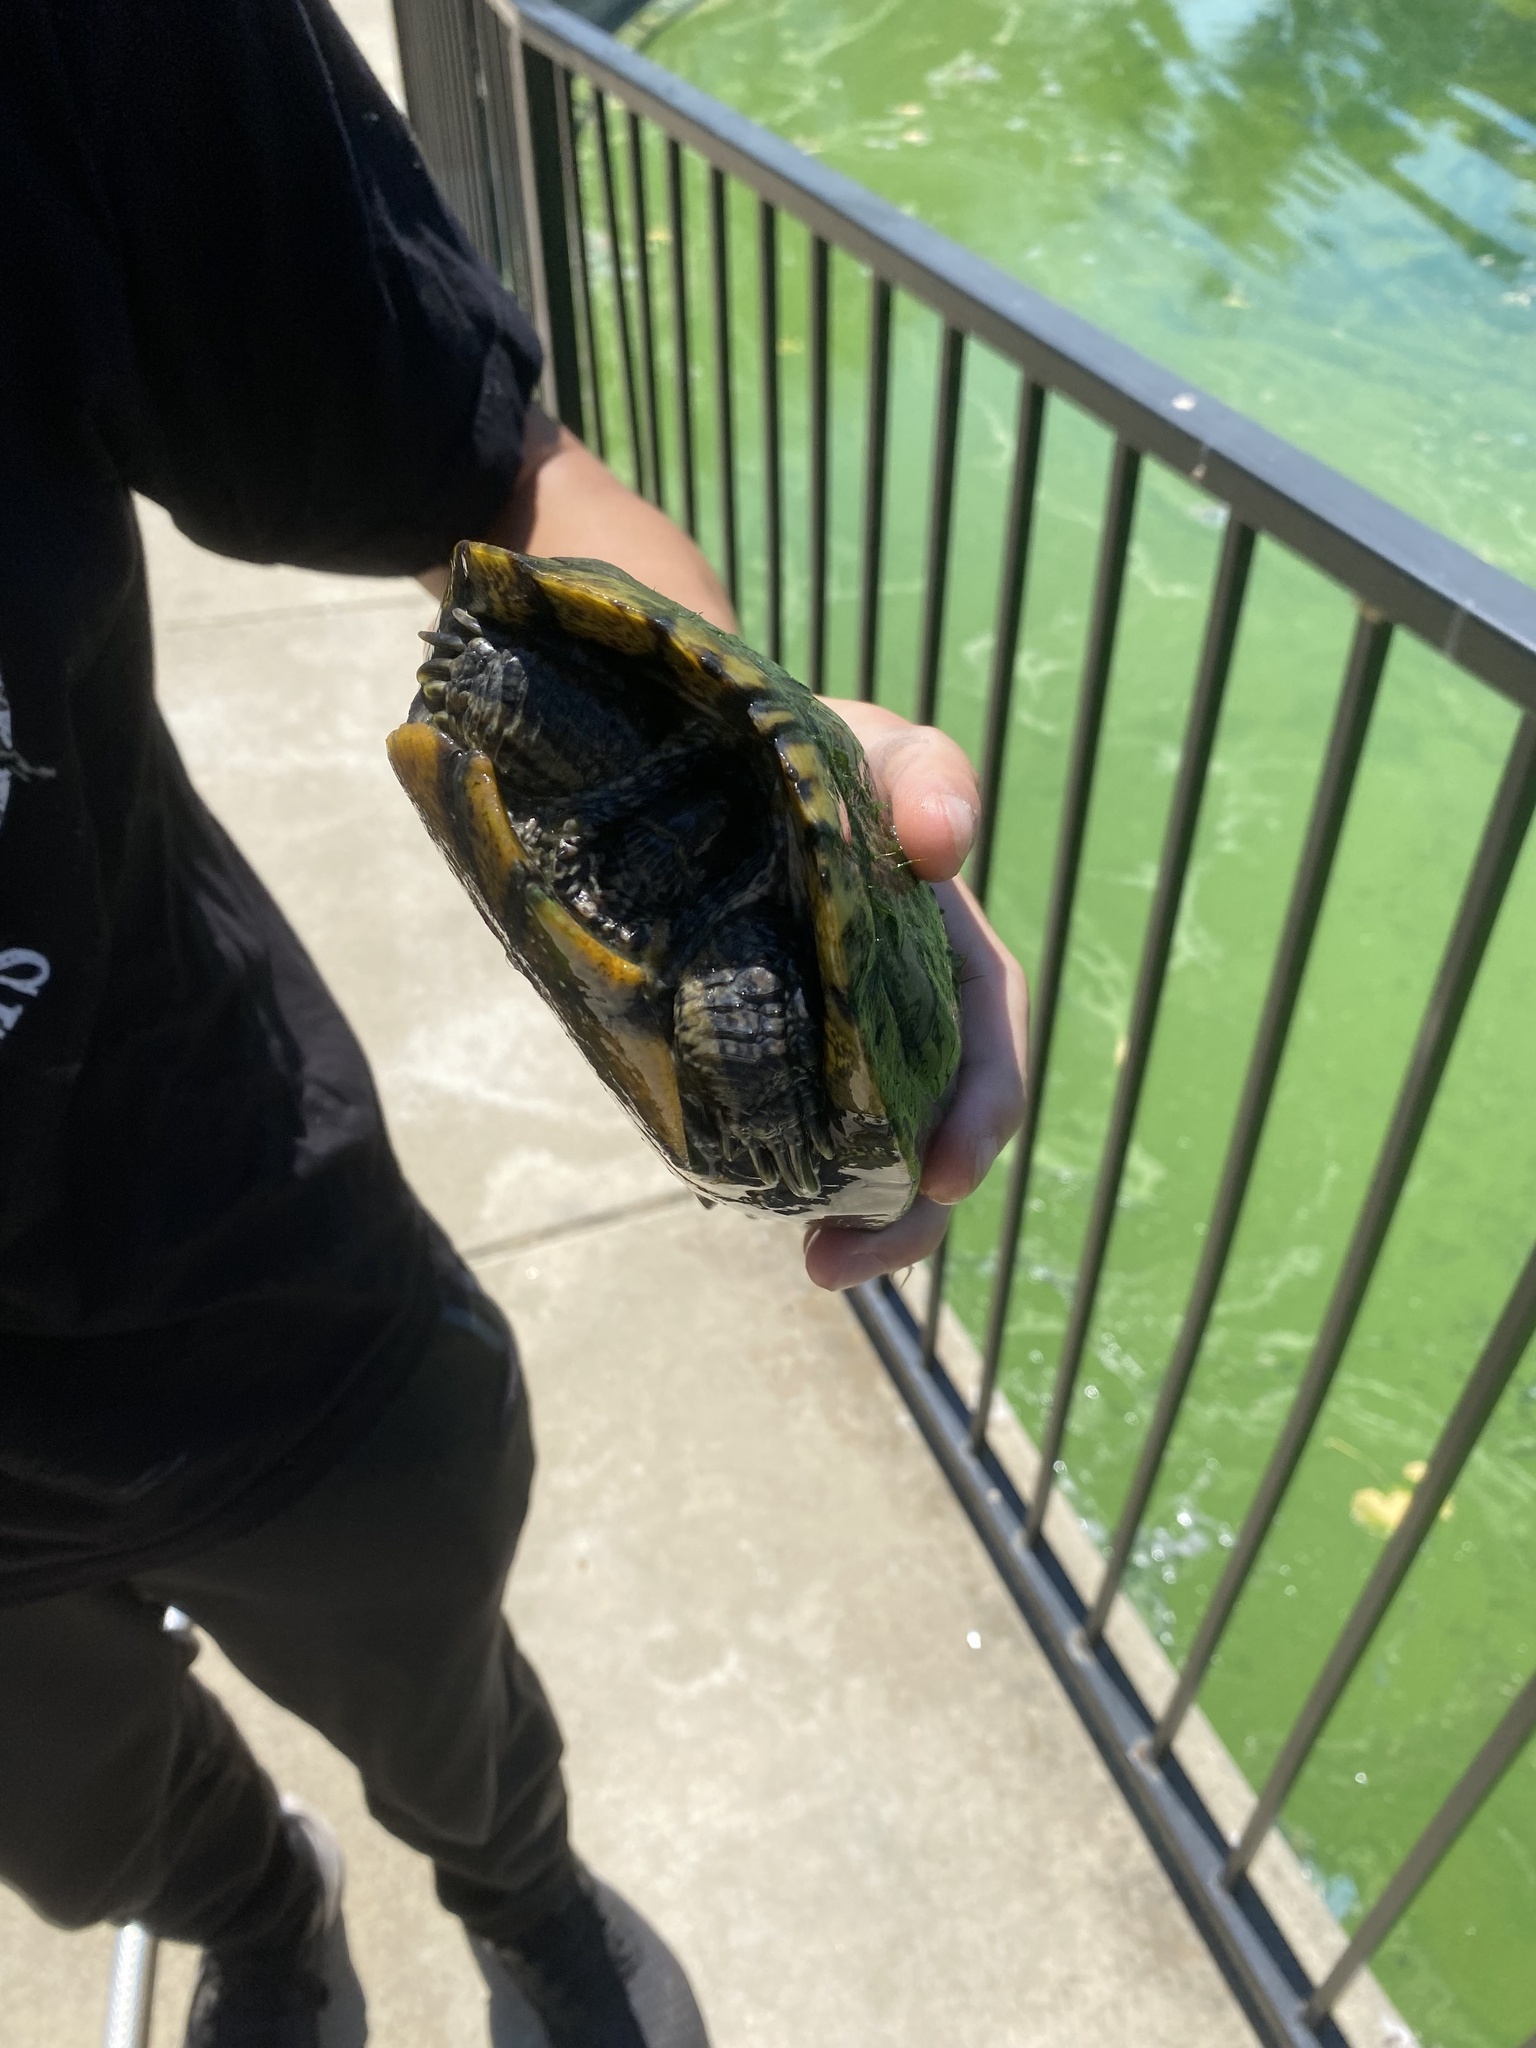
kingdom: Animalia
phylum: Chordata
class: Testudines
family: Emydidae
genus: Trachemys
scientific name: Trachemys scripta
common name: Slider
